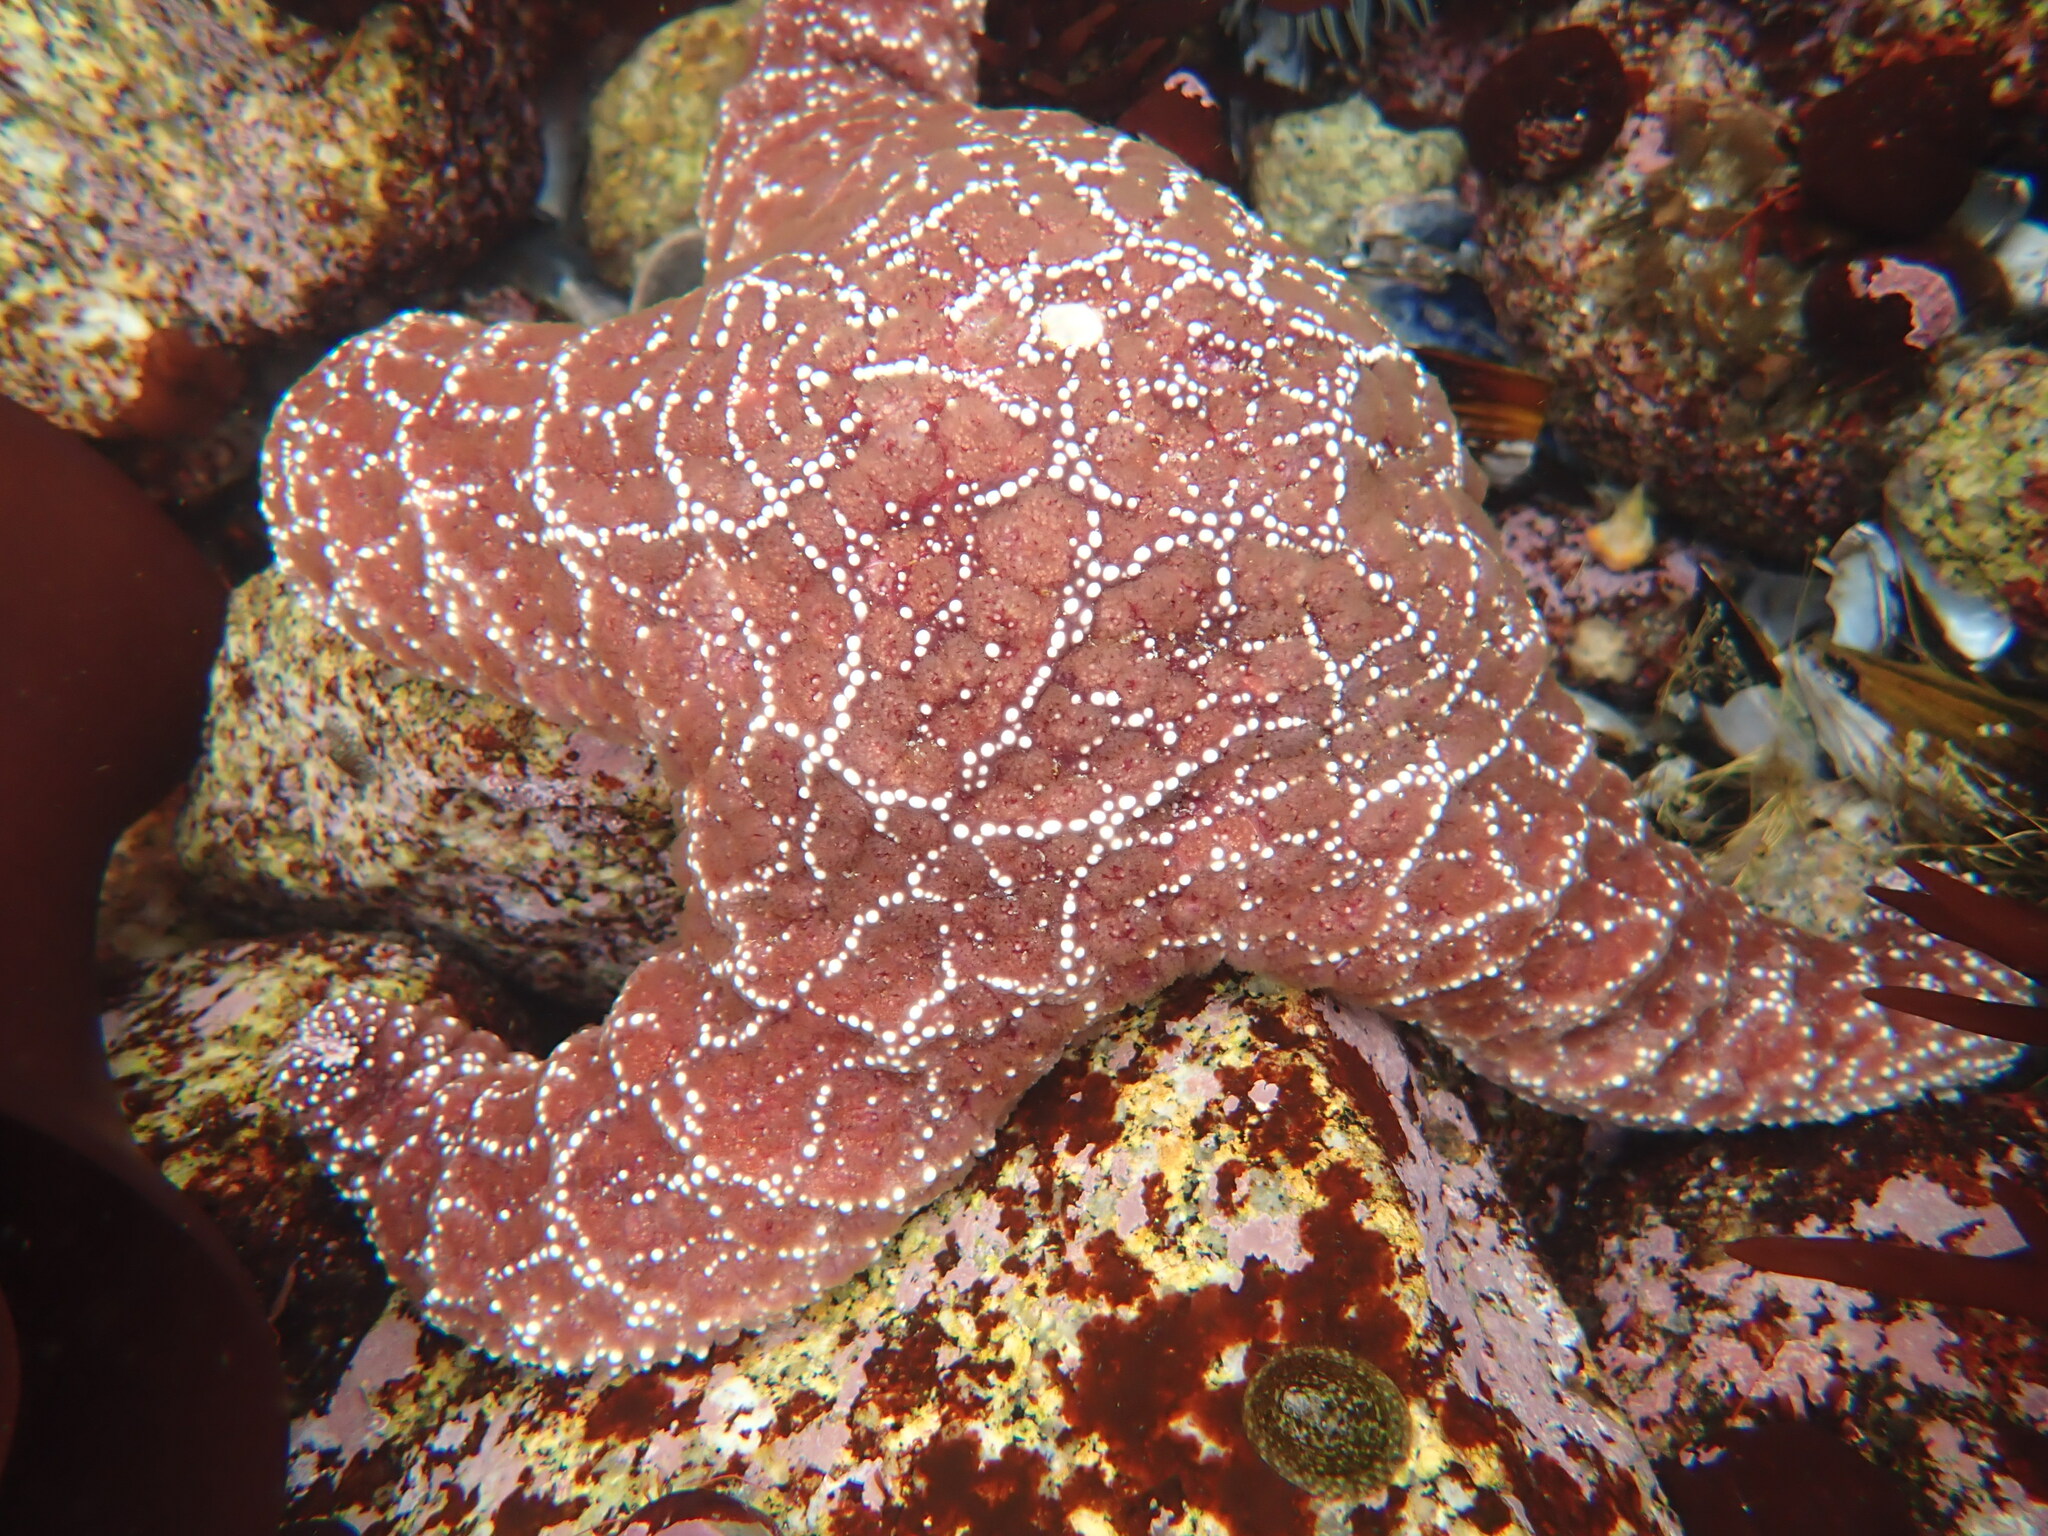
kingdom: Animalia
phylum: Echinodermata
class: Asteroidea
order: Forcipulatida
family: Asteriidae
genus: Pisaster
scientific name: Pisaster ochraceus
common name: Ochre stars
